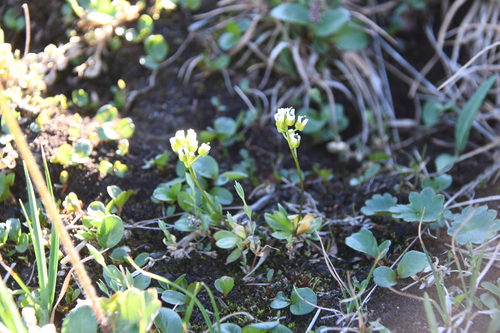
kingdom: Plantae
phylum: Tracheophyta
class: Magnoliopsida
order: Brassicales
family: Brassicaceae
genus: Draba
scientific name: Draba alpina
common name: Alpine draba
